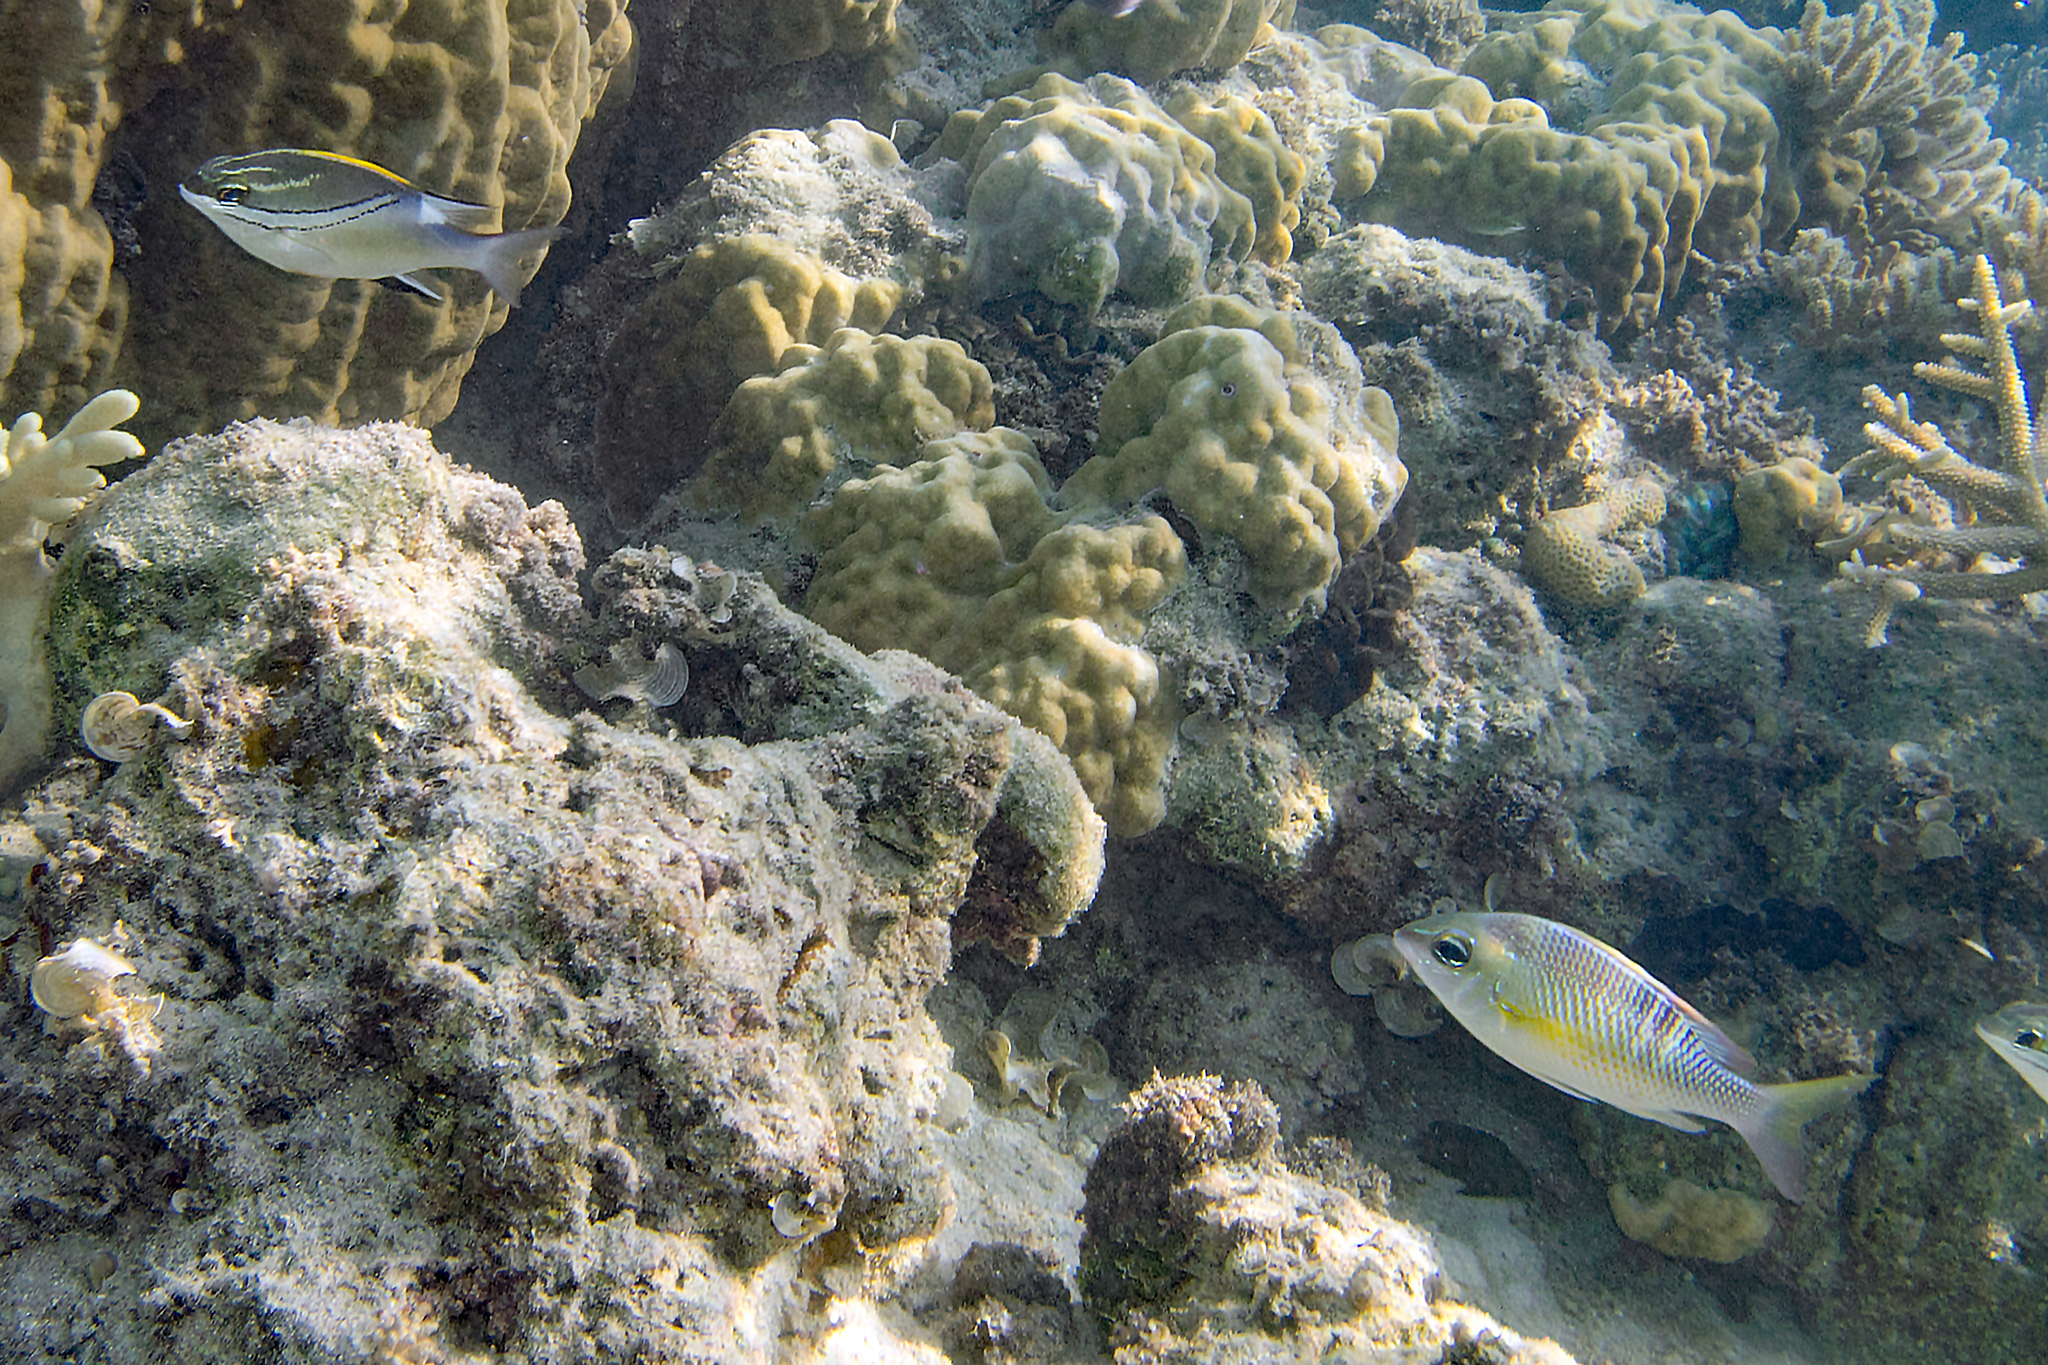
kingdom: Animalia
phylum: Chordata
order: Perciformes
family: Nemipteridae
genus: Scolopsis
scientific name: Scolopsis bilineata
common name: Two-lined monocle bream
